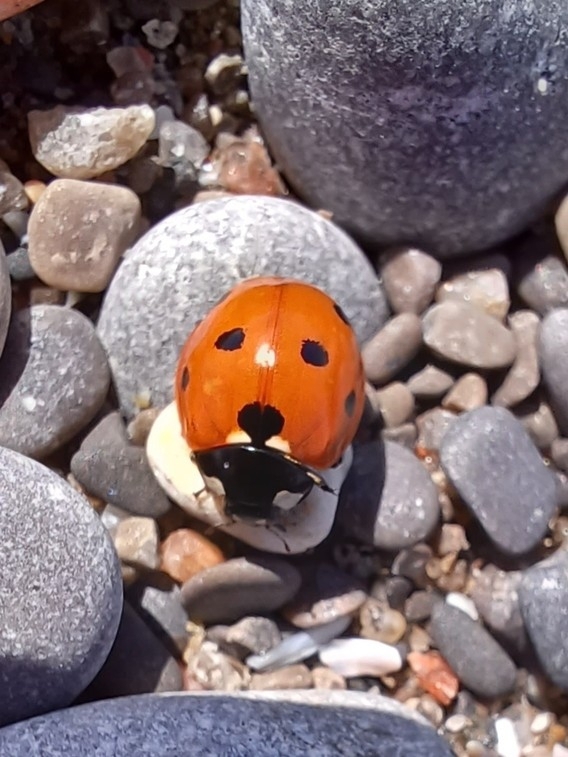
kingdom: Animalia
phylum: Arthropoda
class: Insecta
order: Coleoptera
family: Coccinellidae
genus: Coccinella
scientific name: Coccinella septempunctata
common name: Sevenspotted lady beetle
